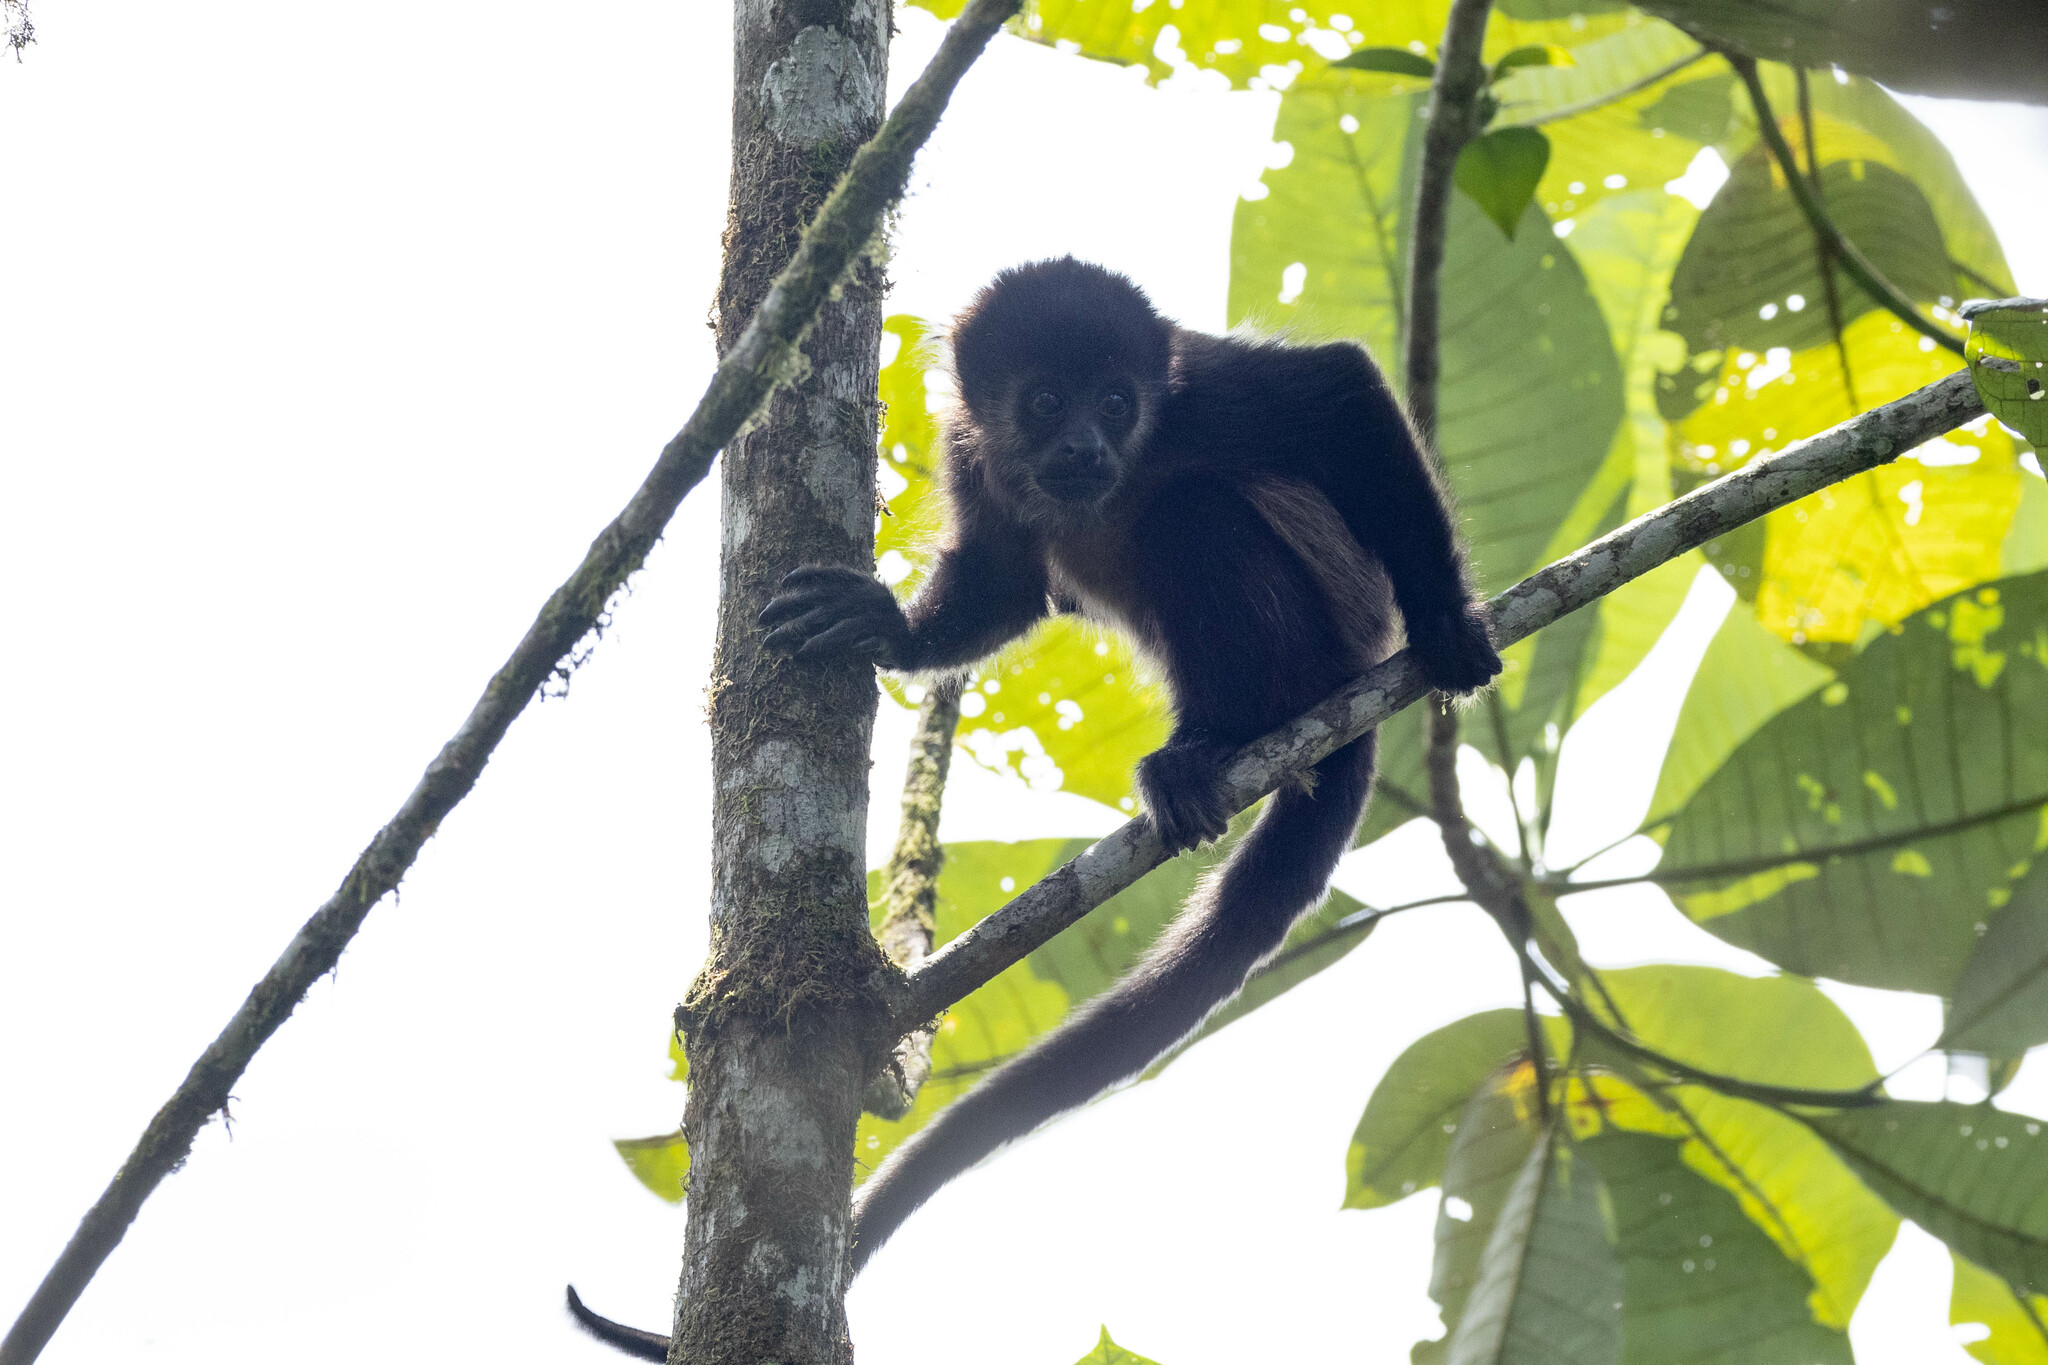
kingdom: Animalia
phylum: Chordata
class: Mammalia
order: Primates
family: Atelidae
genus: Alouatta
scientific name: Alouatta palliata
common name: Mantled howler
